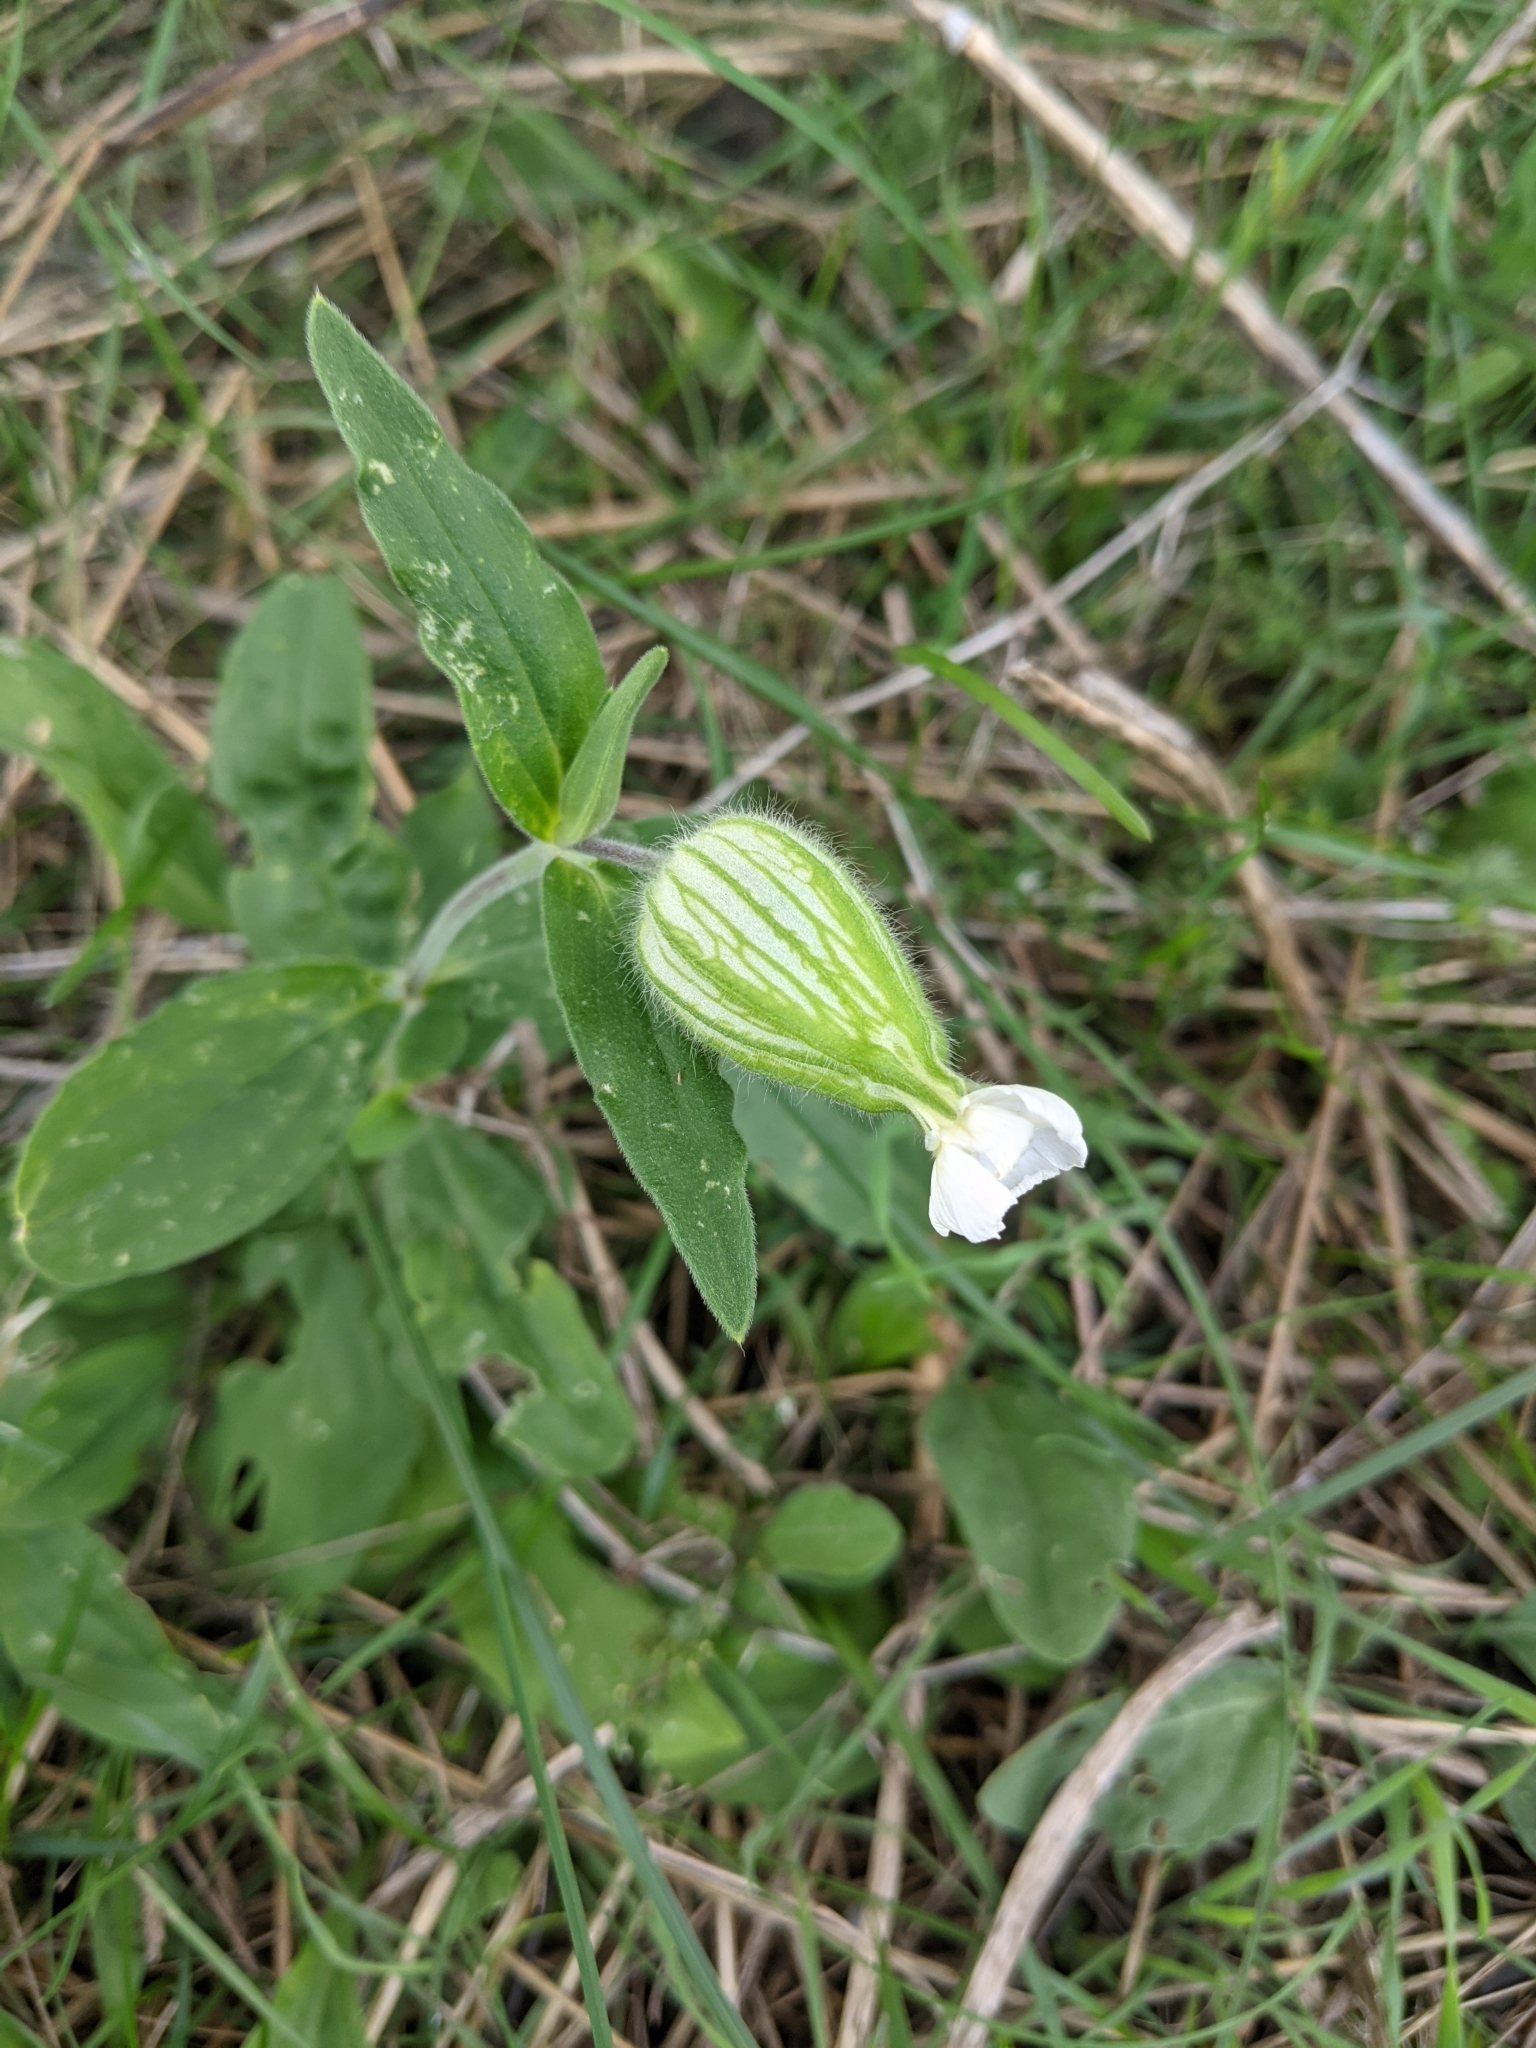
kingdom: Plantae
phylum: Tracheophyta
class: Magnoliopsida
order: Caryophyllales
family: Caryophyllaceae
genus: Silene
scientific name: Silene latifolia
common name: White campion
